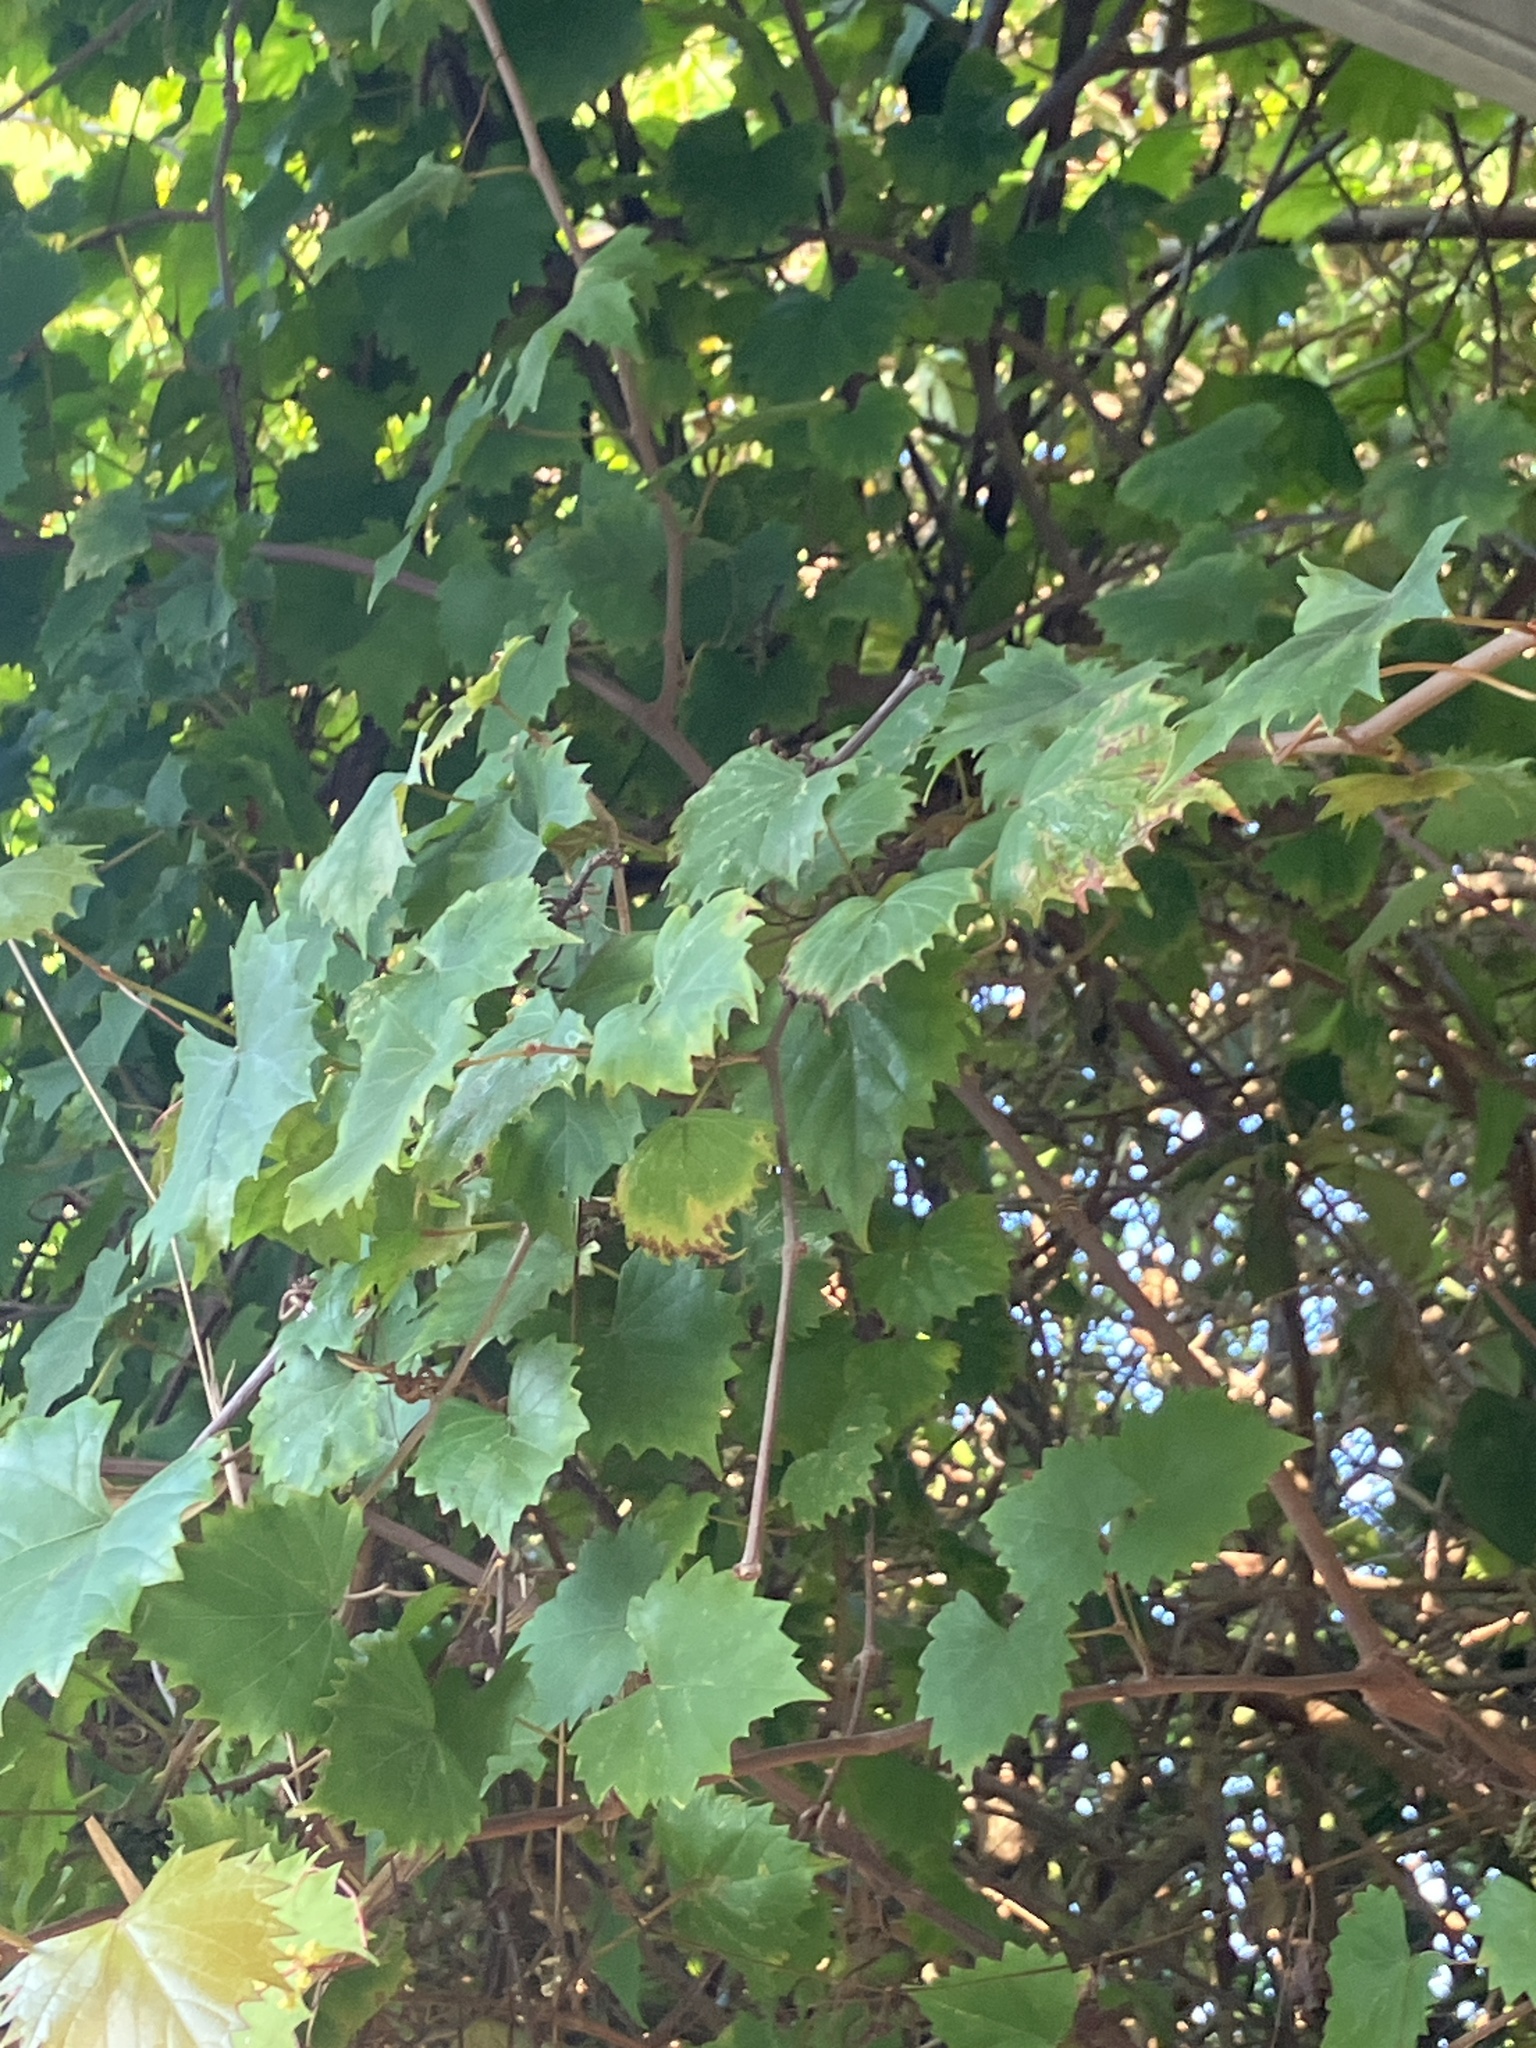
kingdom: Plantae
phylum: Tracheophyta
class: Magnoliopsida
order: Vitales
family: Vitaceae
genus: Vitis
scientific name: Vitis rotundifolia
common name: Muscadine grape
